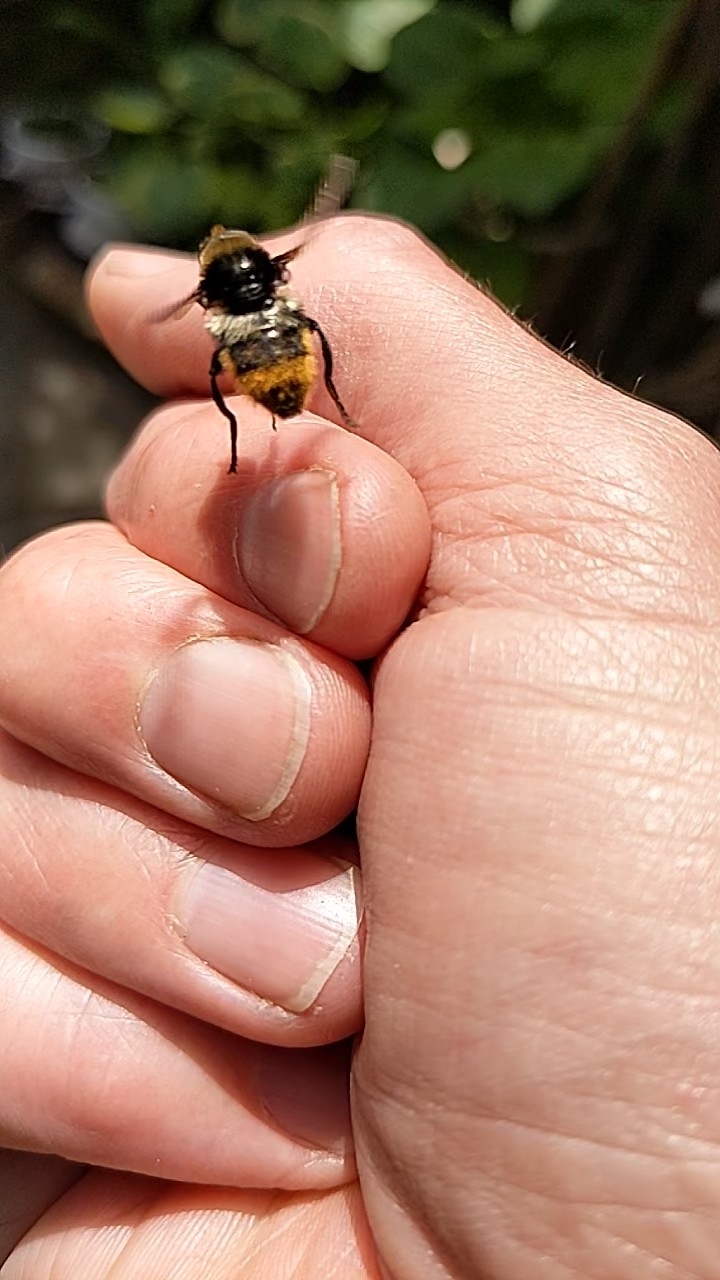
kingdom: Animalia
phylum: Arthropoda
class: Insecta
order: Diptera
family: Syrphidae
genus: Merodon
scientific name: Merodon equestris
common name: Greater bulb-fly
